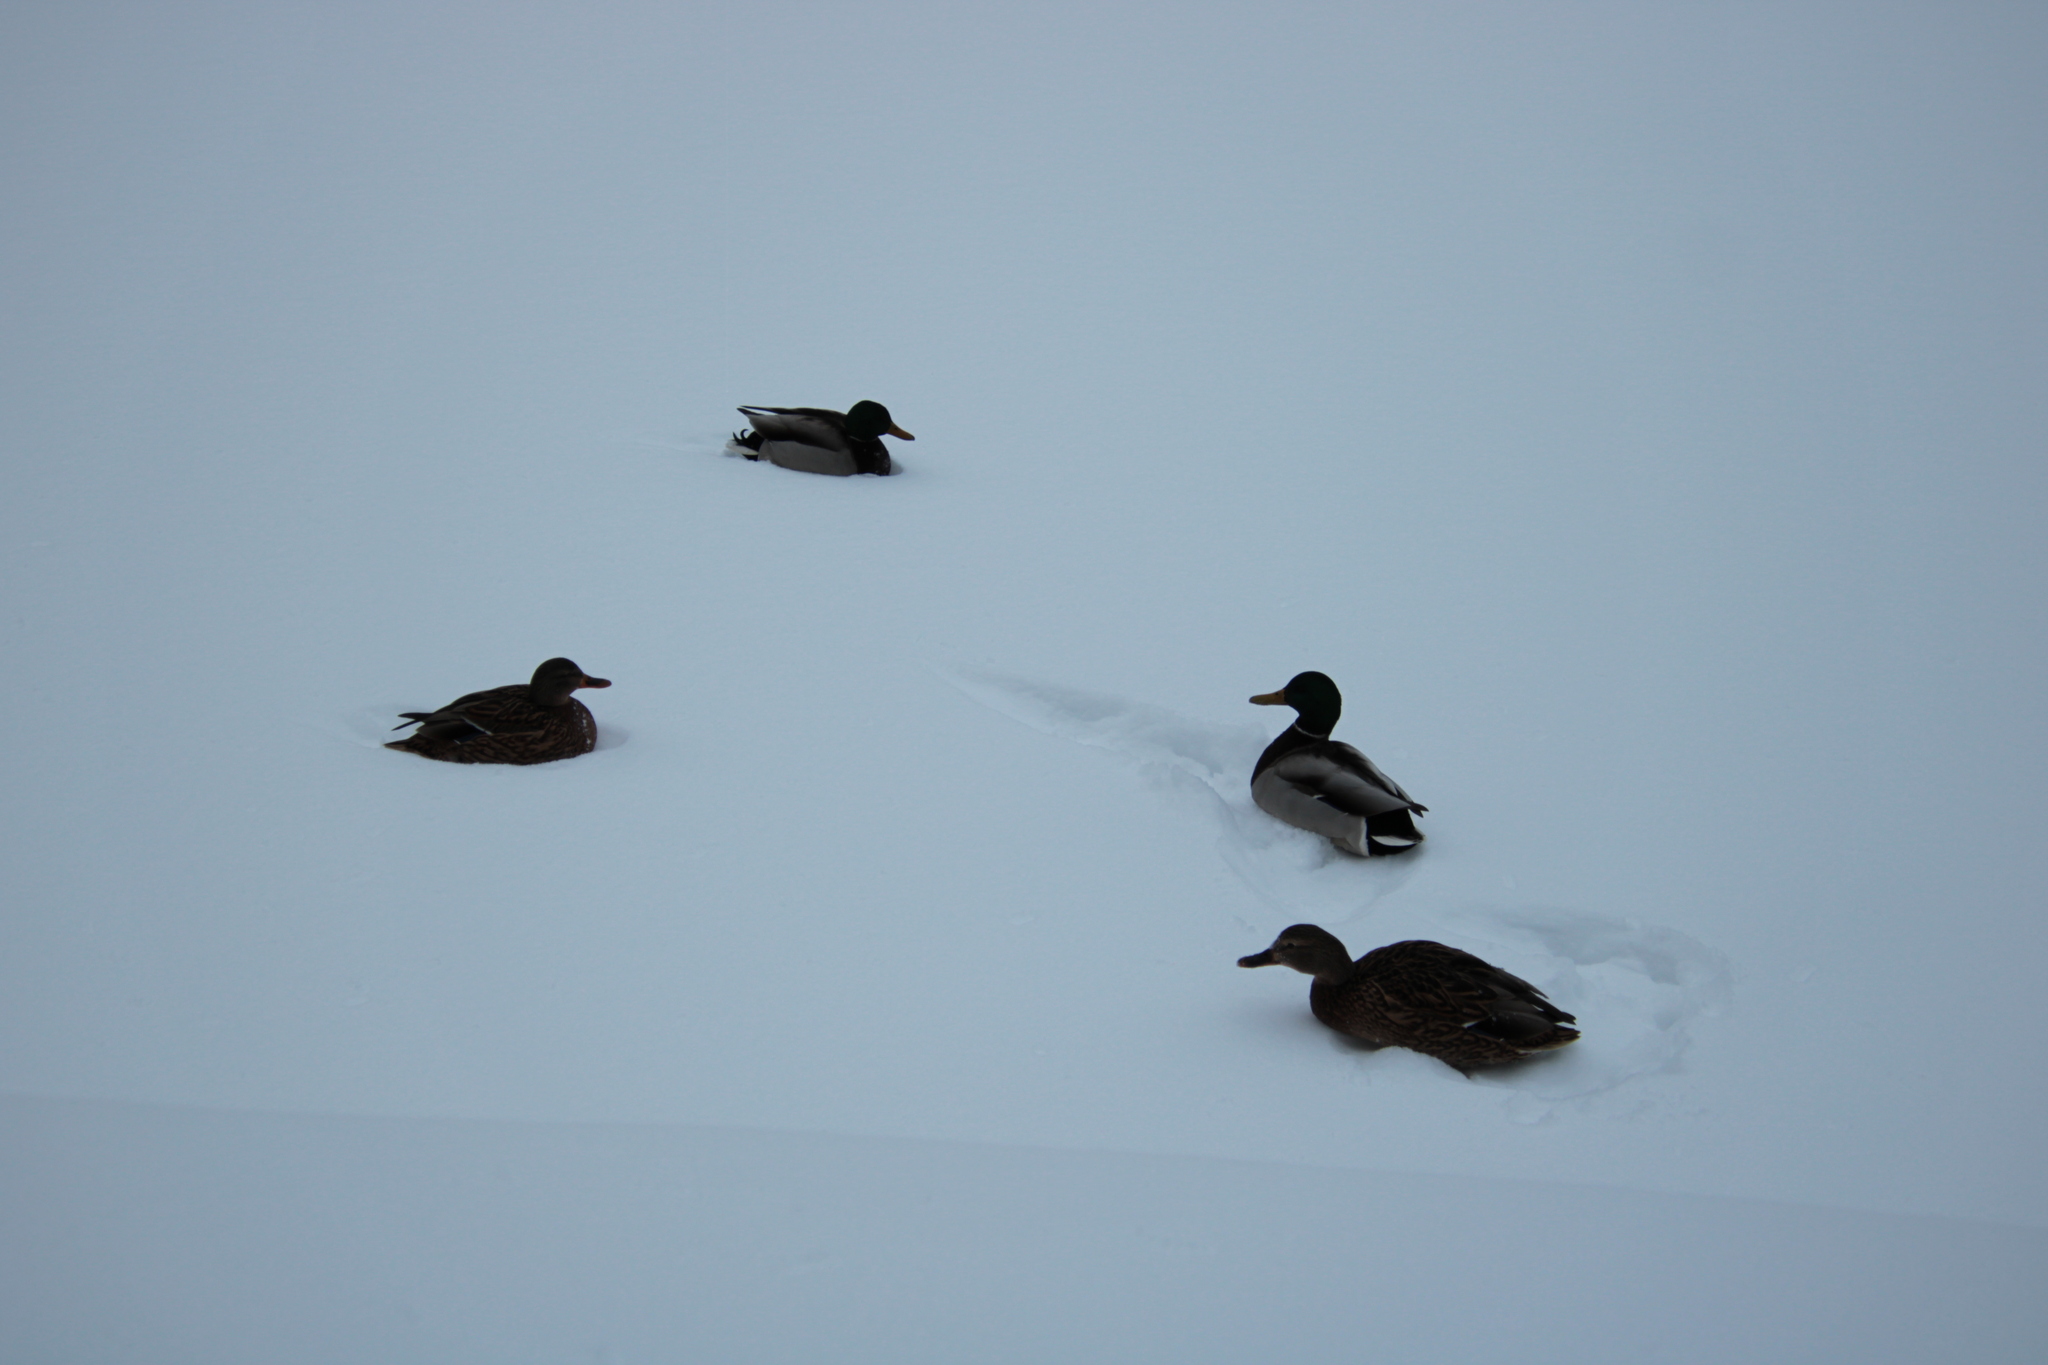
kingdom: Animalia
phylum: Chordata
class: Aves
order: Anseriformes
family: Anatidae
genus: Anas
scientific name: Anas platyrhynchos
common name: Mallard
